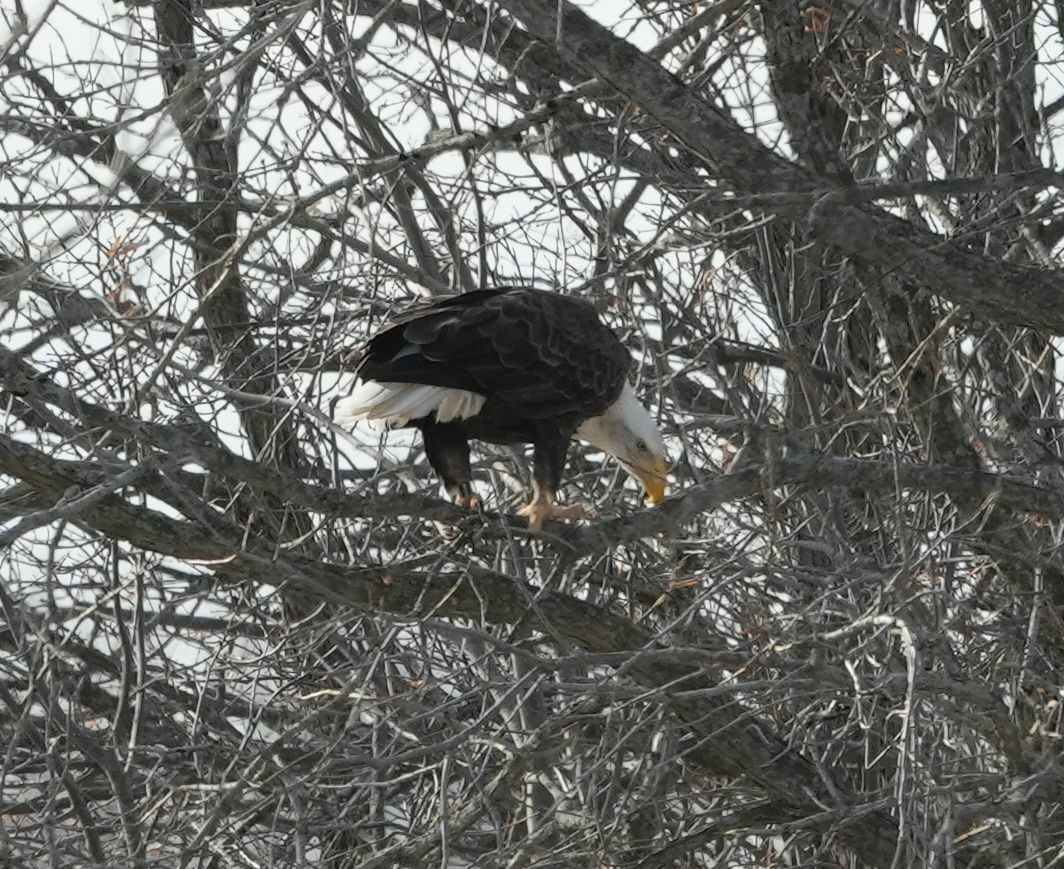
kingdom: Animalia
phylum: Chordata
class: Aves
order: Accipitriformes
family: Accipitridae
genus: Haliaeetus
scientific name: Haliaeetus leucocephalus
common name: Bald eagle
